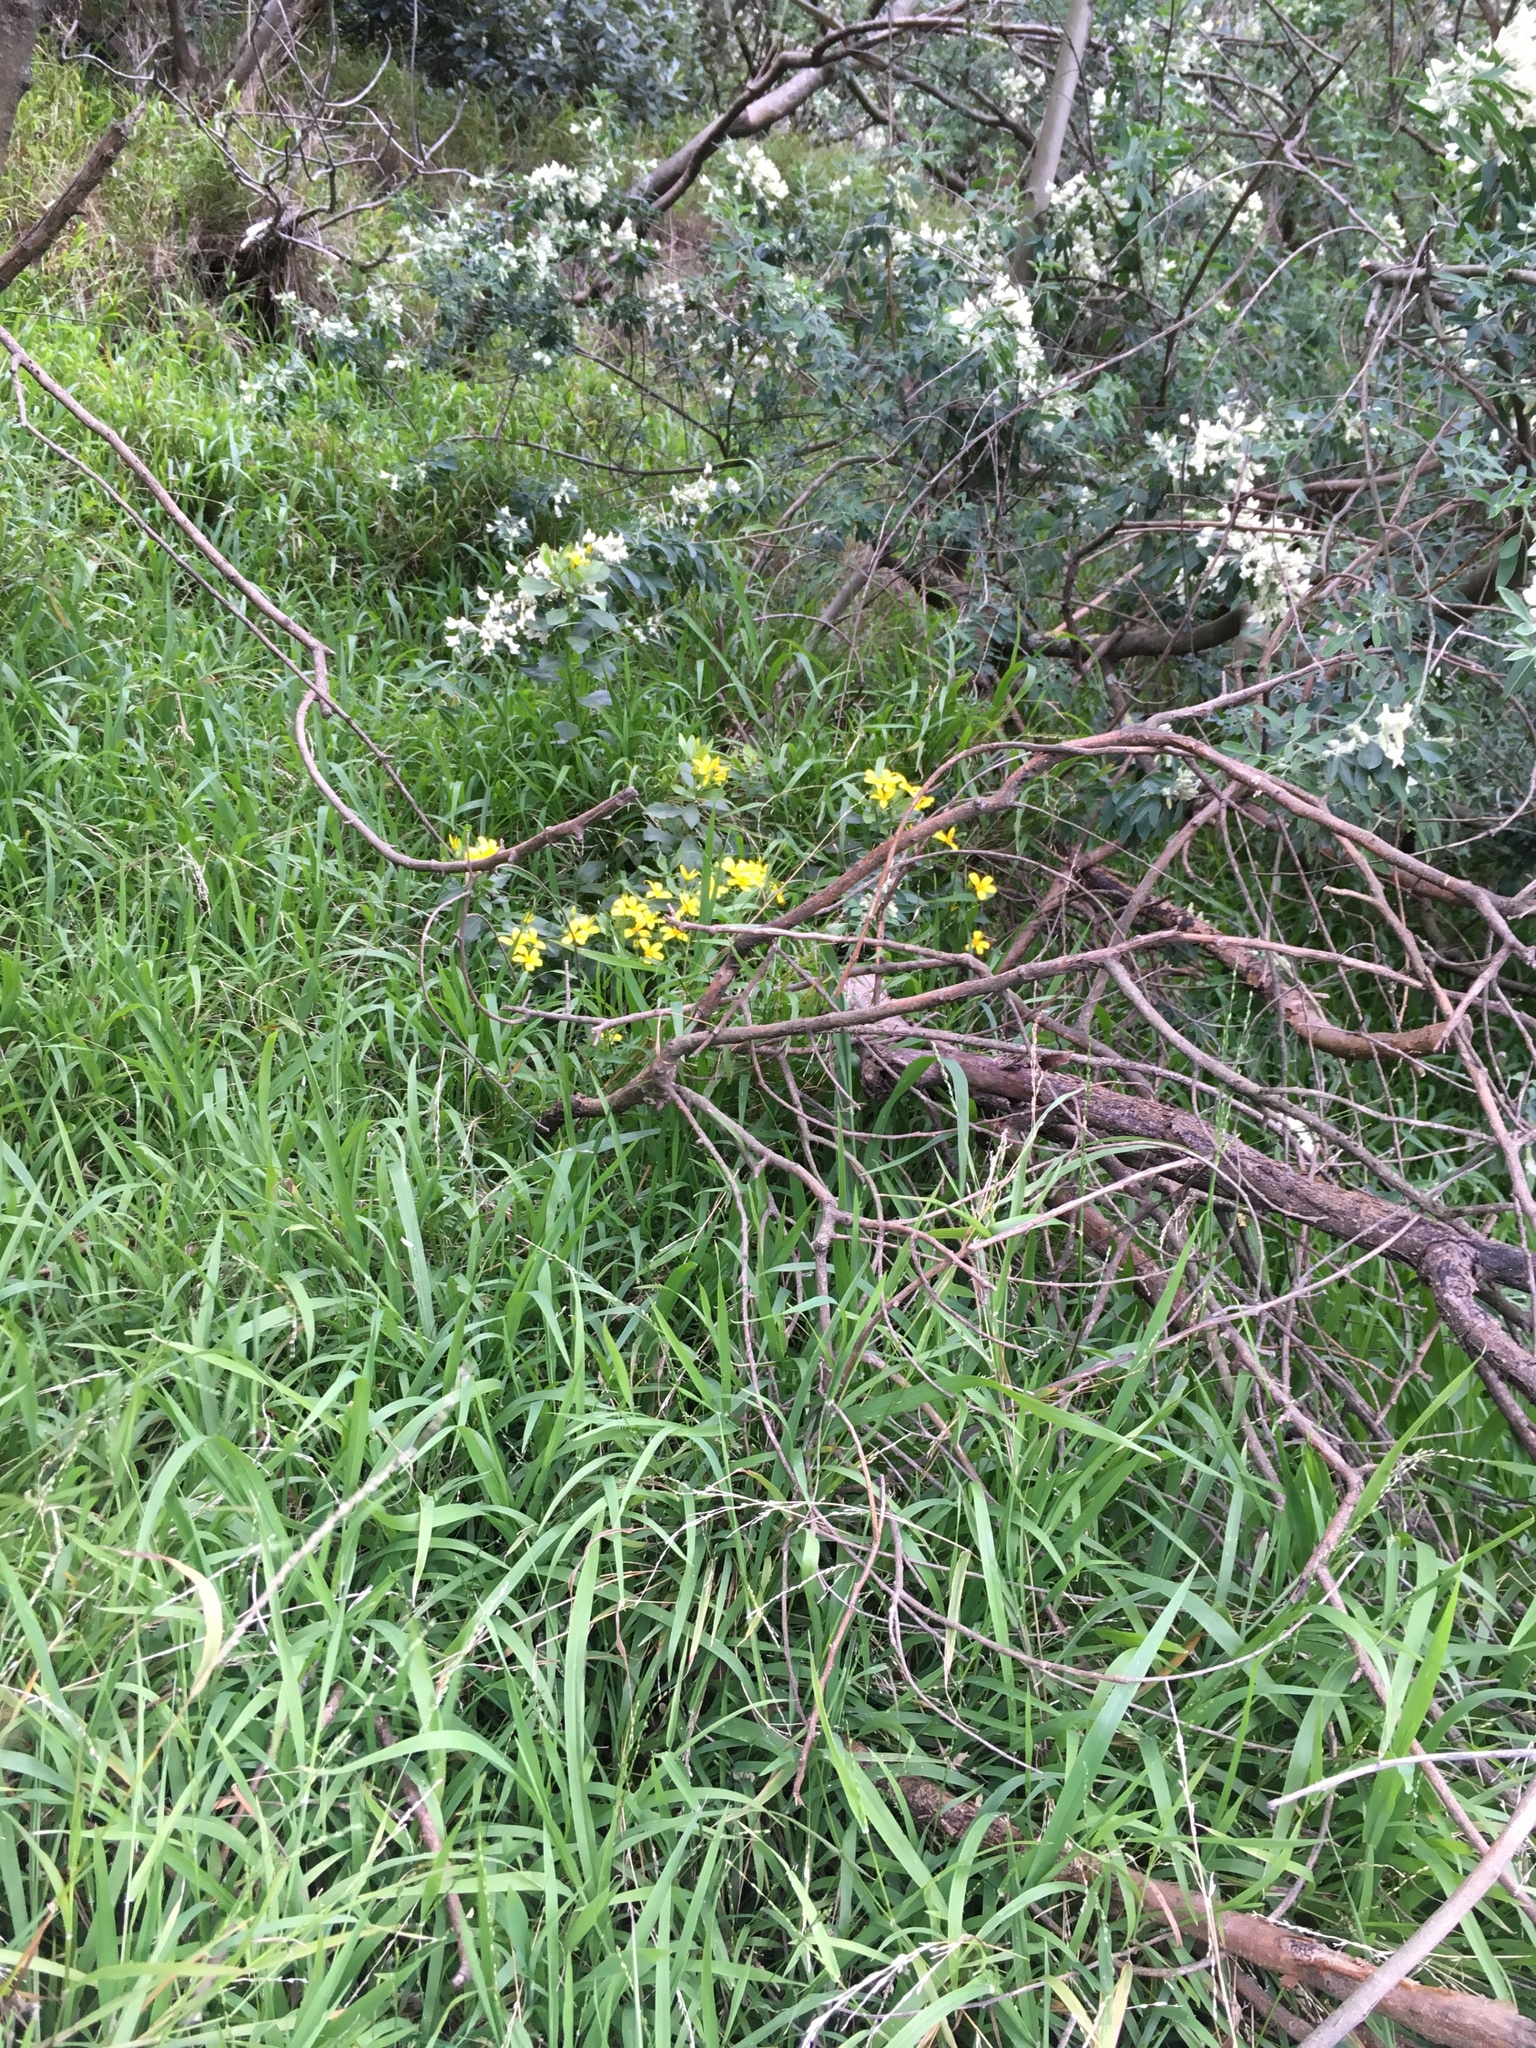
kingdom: Plantae
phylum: Tracheophyta
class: Magnoliopsida
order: Asterales
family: Asteraceae
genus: Osteospermum
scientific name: Osteospermum moniliferum
